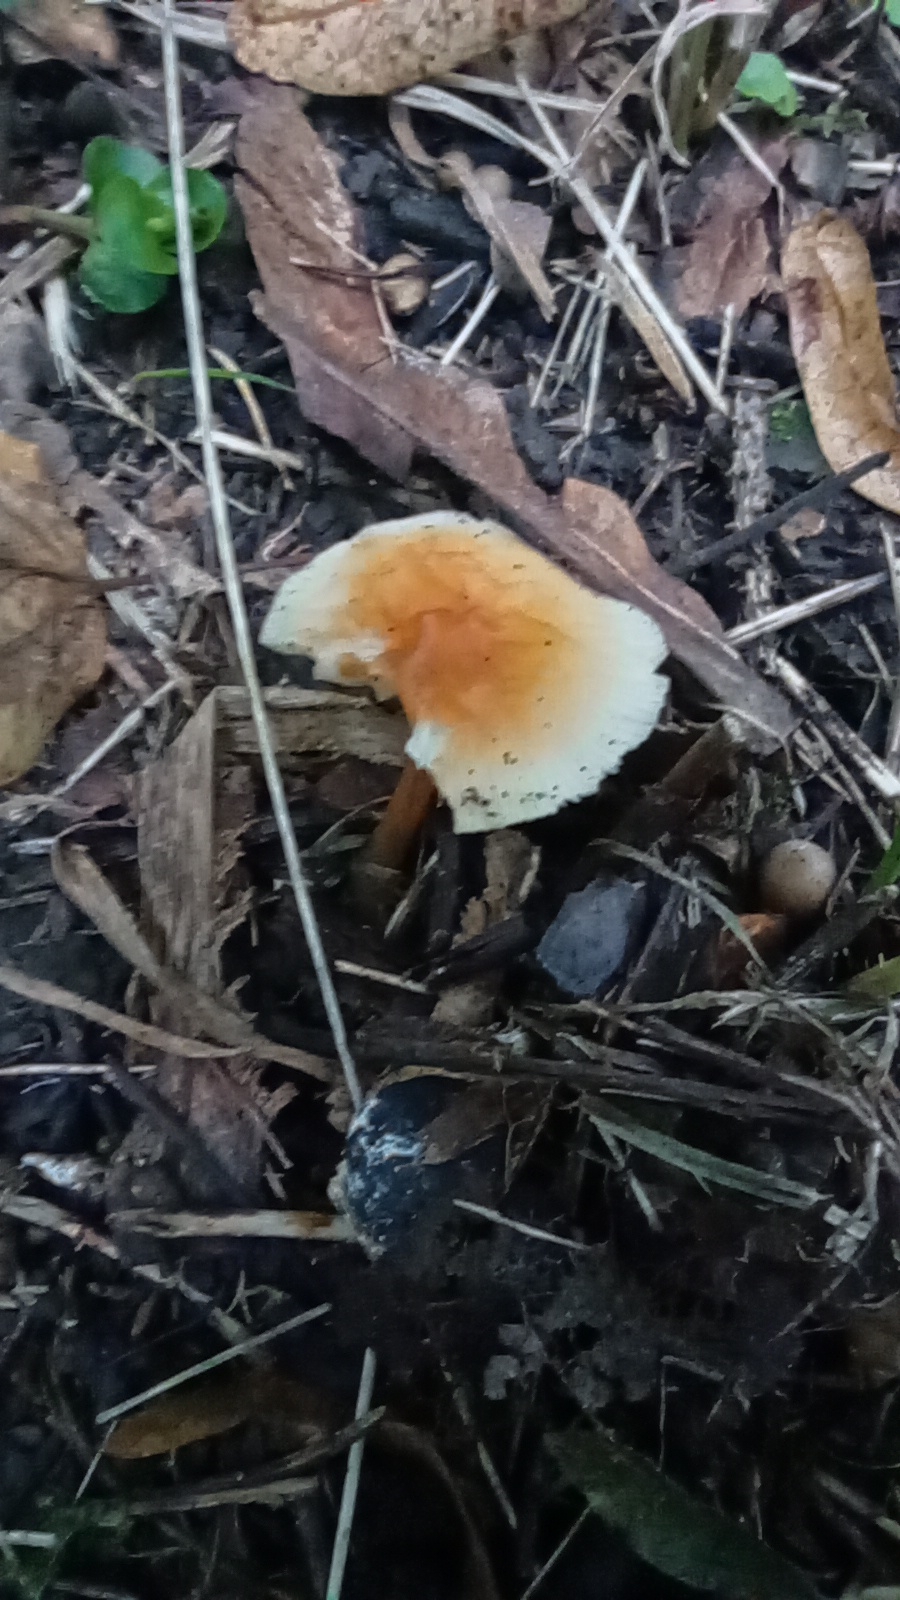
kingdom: Fungi
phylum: Basidiomycota
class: Agaricomycetes
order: Agaricales
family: Omphalotaceae
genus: Gymnopus
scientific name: Gymnopus dryophilus
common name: Penny top
